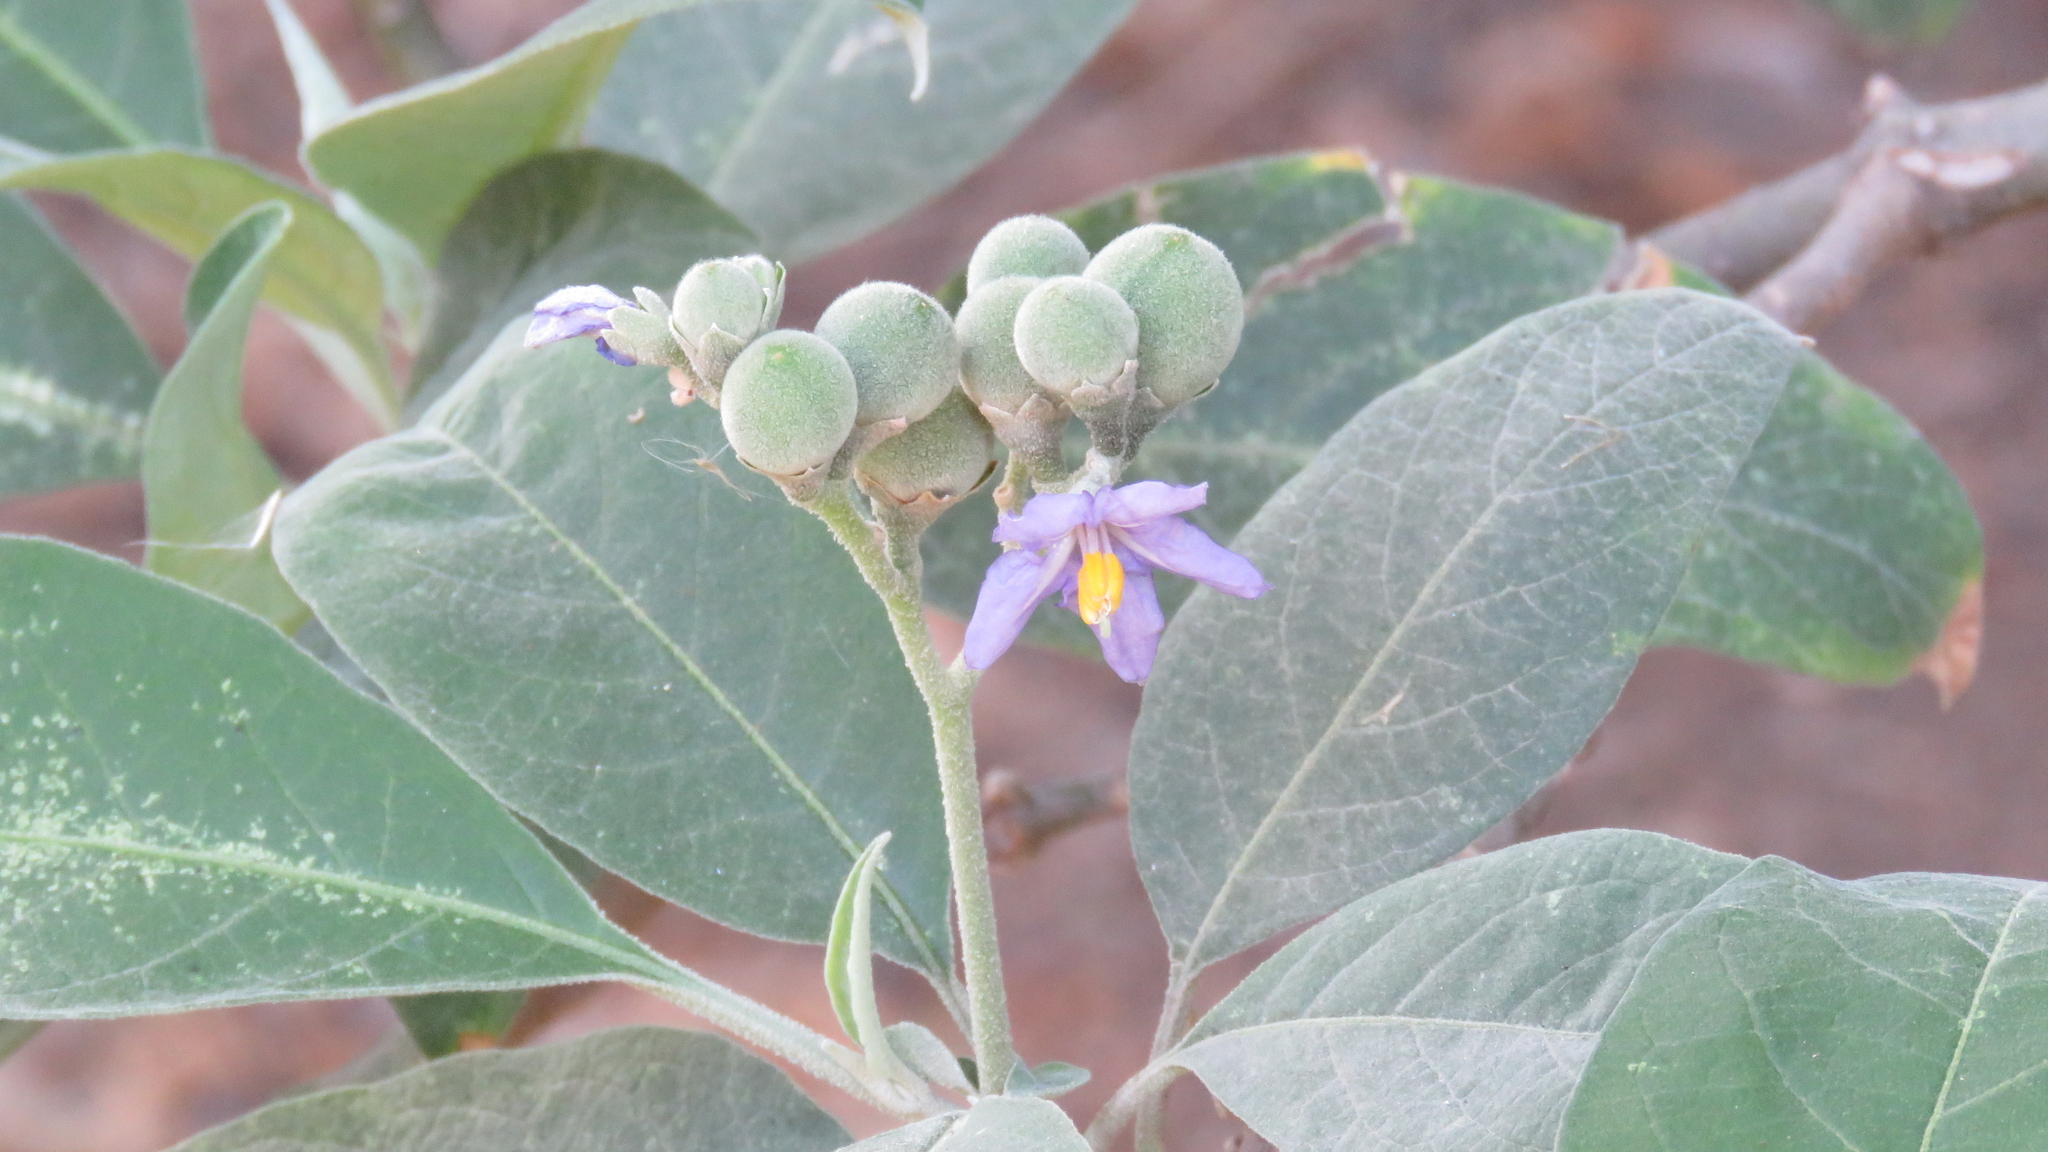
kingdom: Plantae
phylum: Tracheophyta
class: Magnoliopsida
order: Solanales
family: Solanaceae
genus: Solanum
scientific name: Solanum granulosoleprosum
